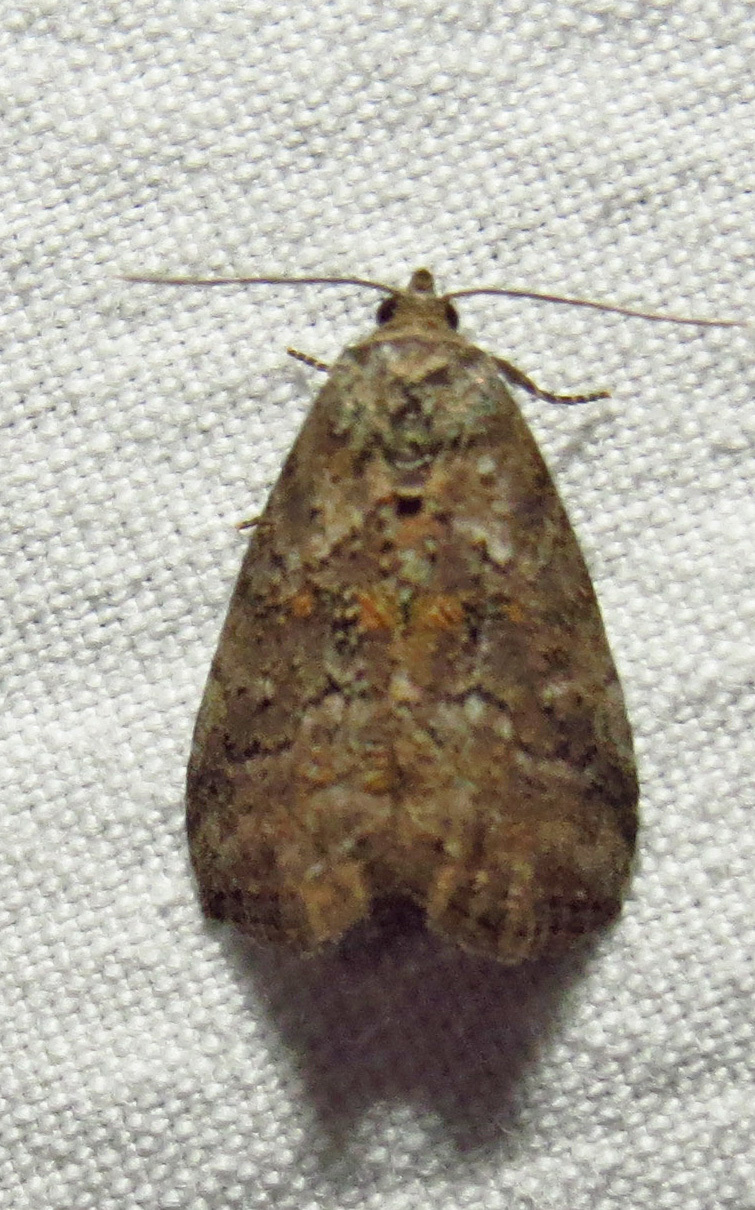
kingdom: Animalia
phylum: Arthropoda
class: Insecta
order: Lepidoptera
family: Erebidae
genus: Hyperstrotia
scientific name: Hyperstrotia nana
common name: White-lined graylet
